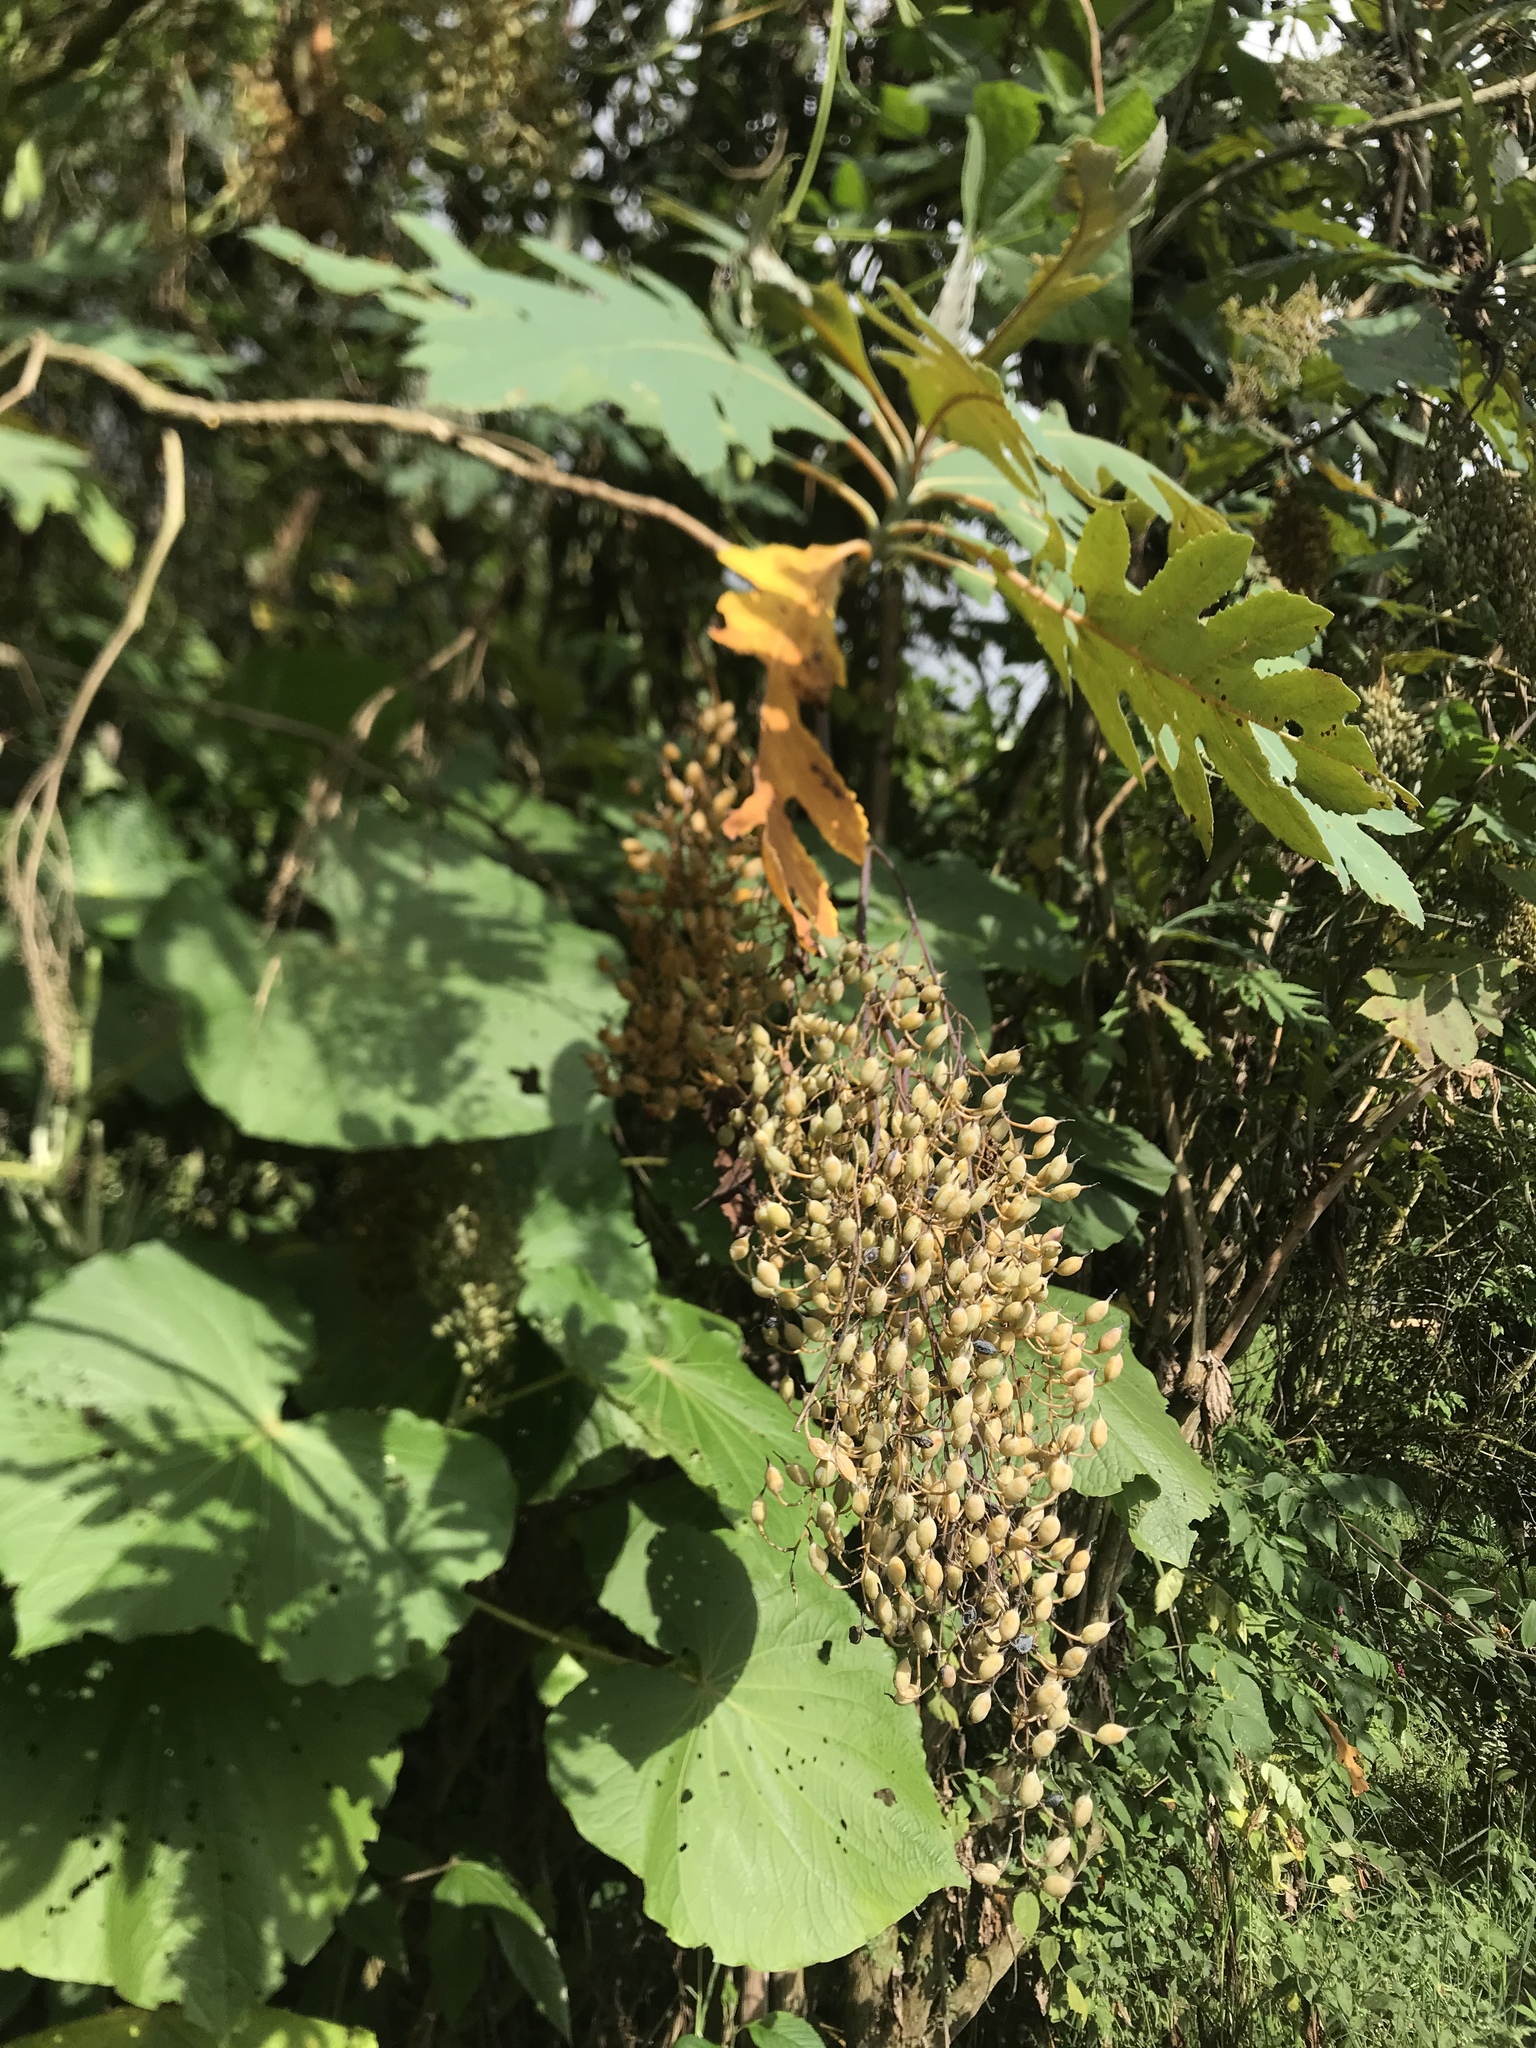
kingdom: Plantae
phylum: Tracheophyta
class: Magnoliopsida
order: Ranunculales
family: Papaveraceae
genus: Bocconia
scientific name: Bocconia frutescens
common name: Tree poppy
